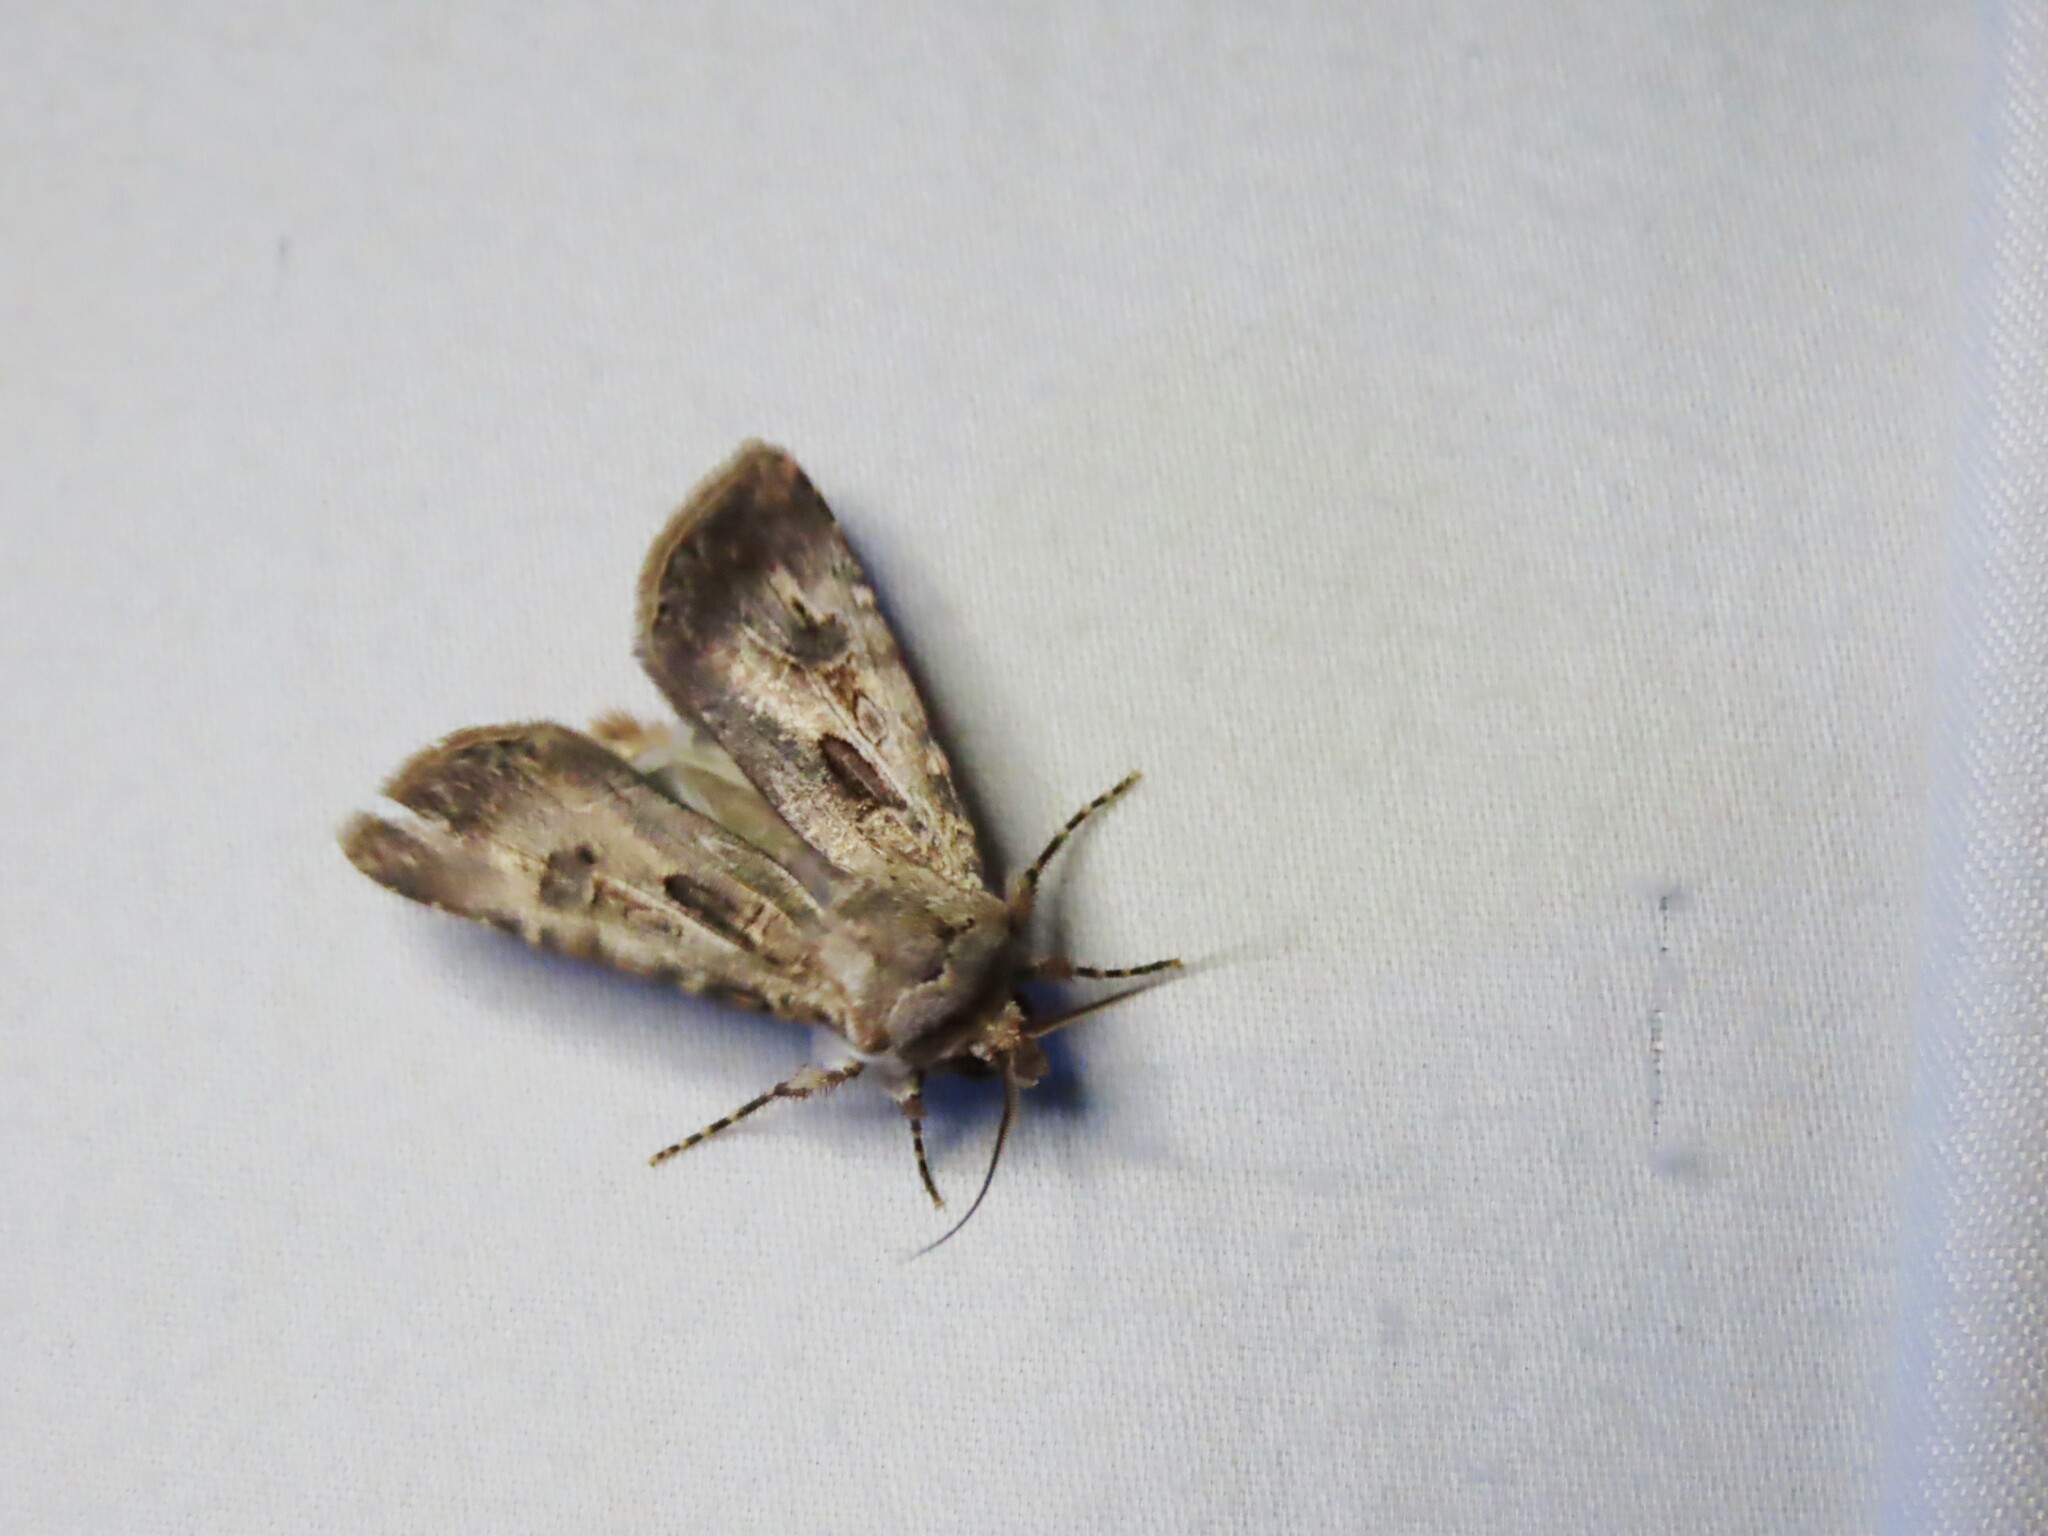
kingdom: Animalia
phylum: Arthropoda
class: Insecta
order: Lepidoptera
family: Noctuidae
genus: Agrotis
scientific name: Agrotis munda
